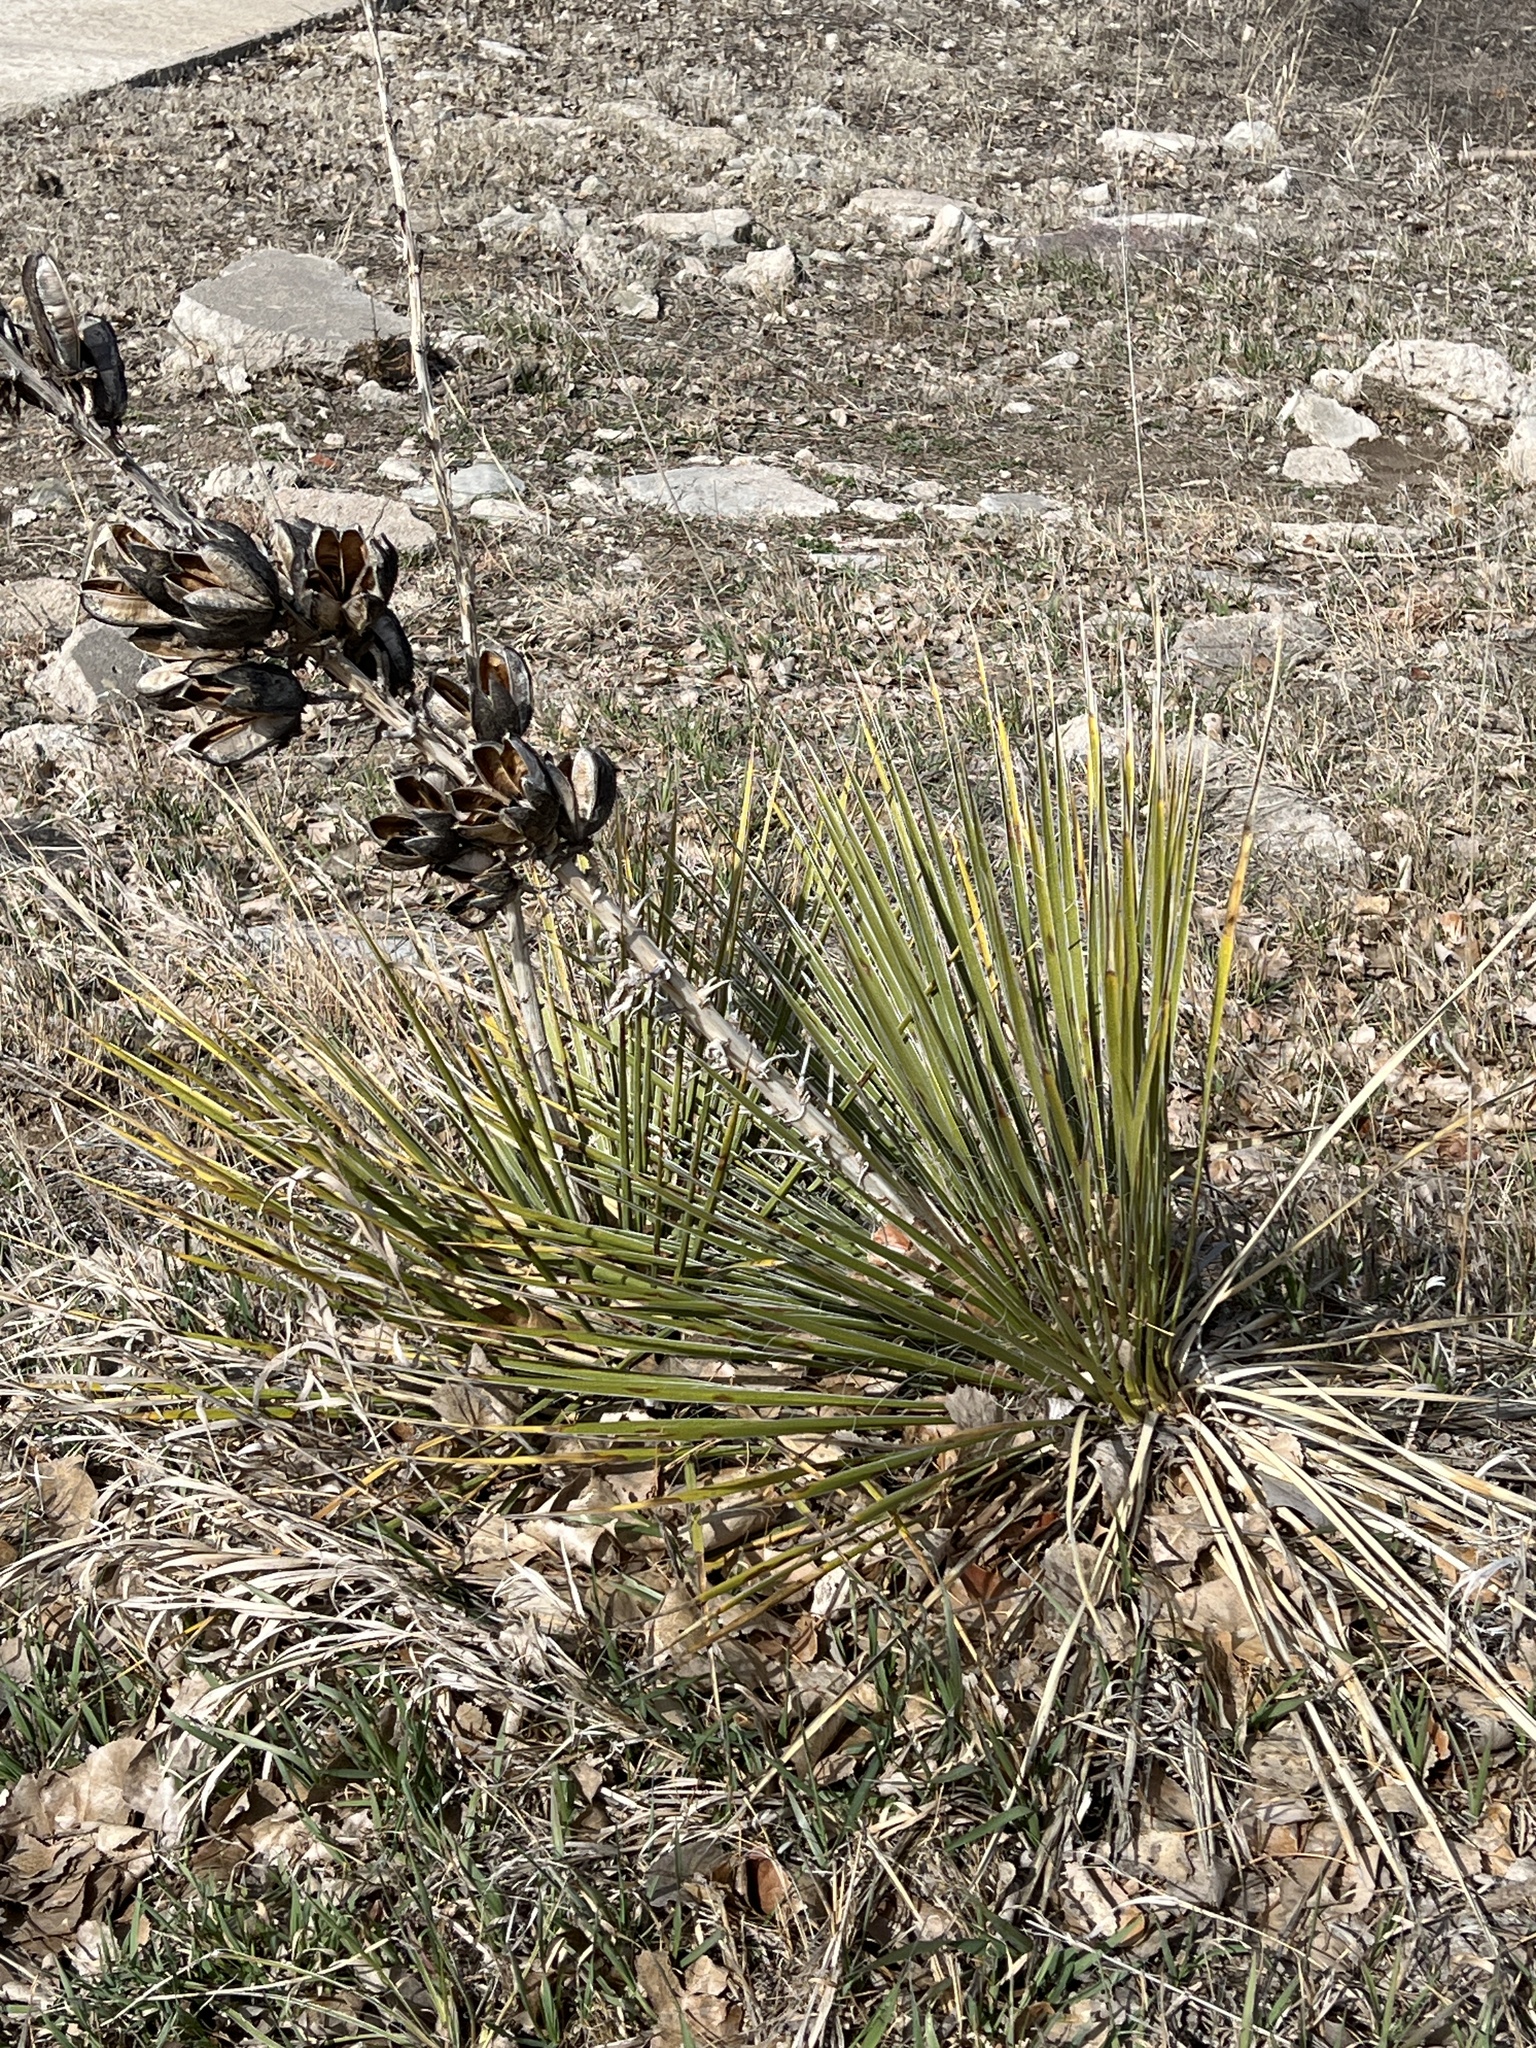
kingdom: Plantae
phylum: Tracheophyta
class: Liliopsida
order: Asparagales
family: Asparagaceae
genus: Yucca
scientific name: Yucca glauca
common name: Great plains yucca
